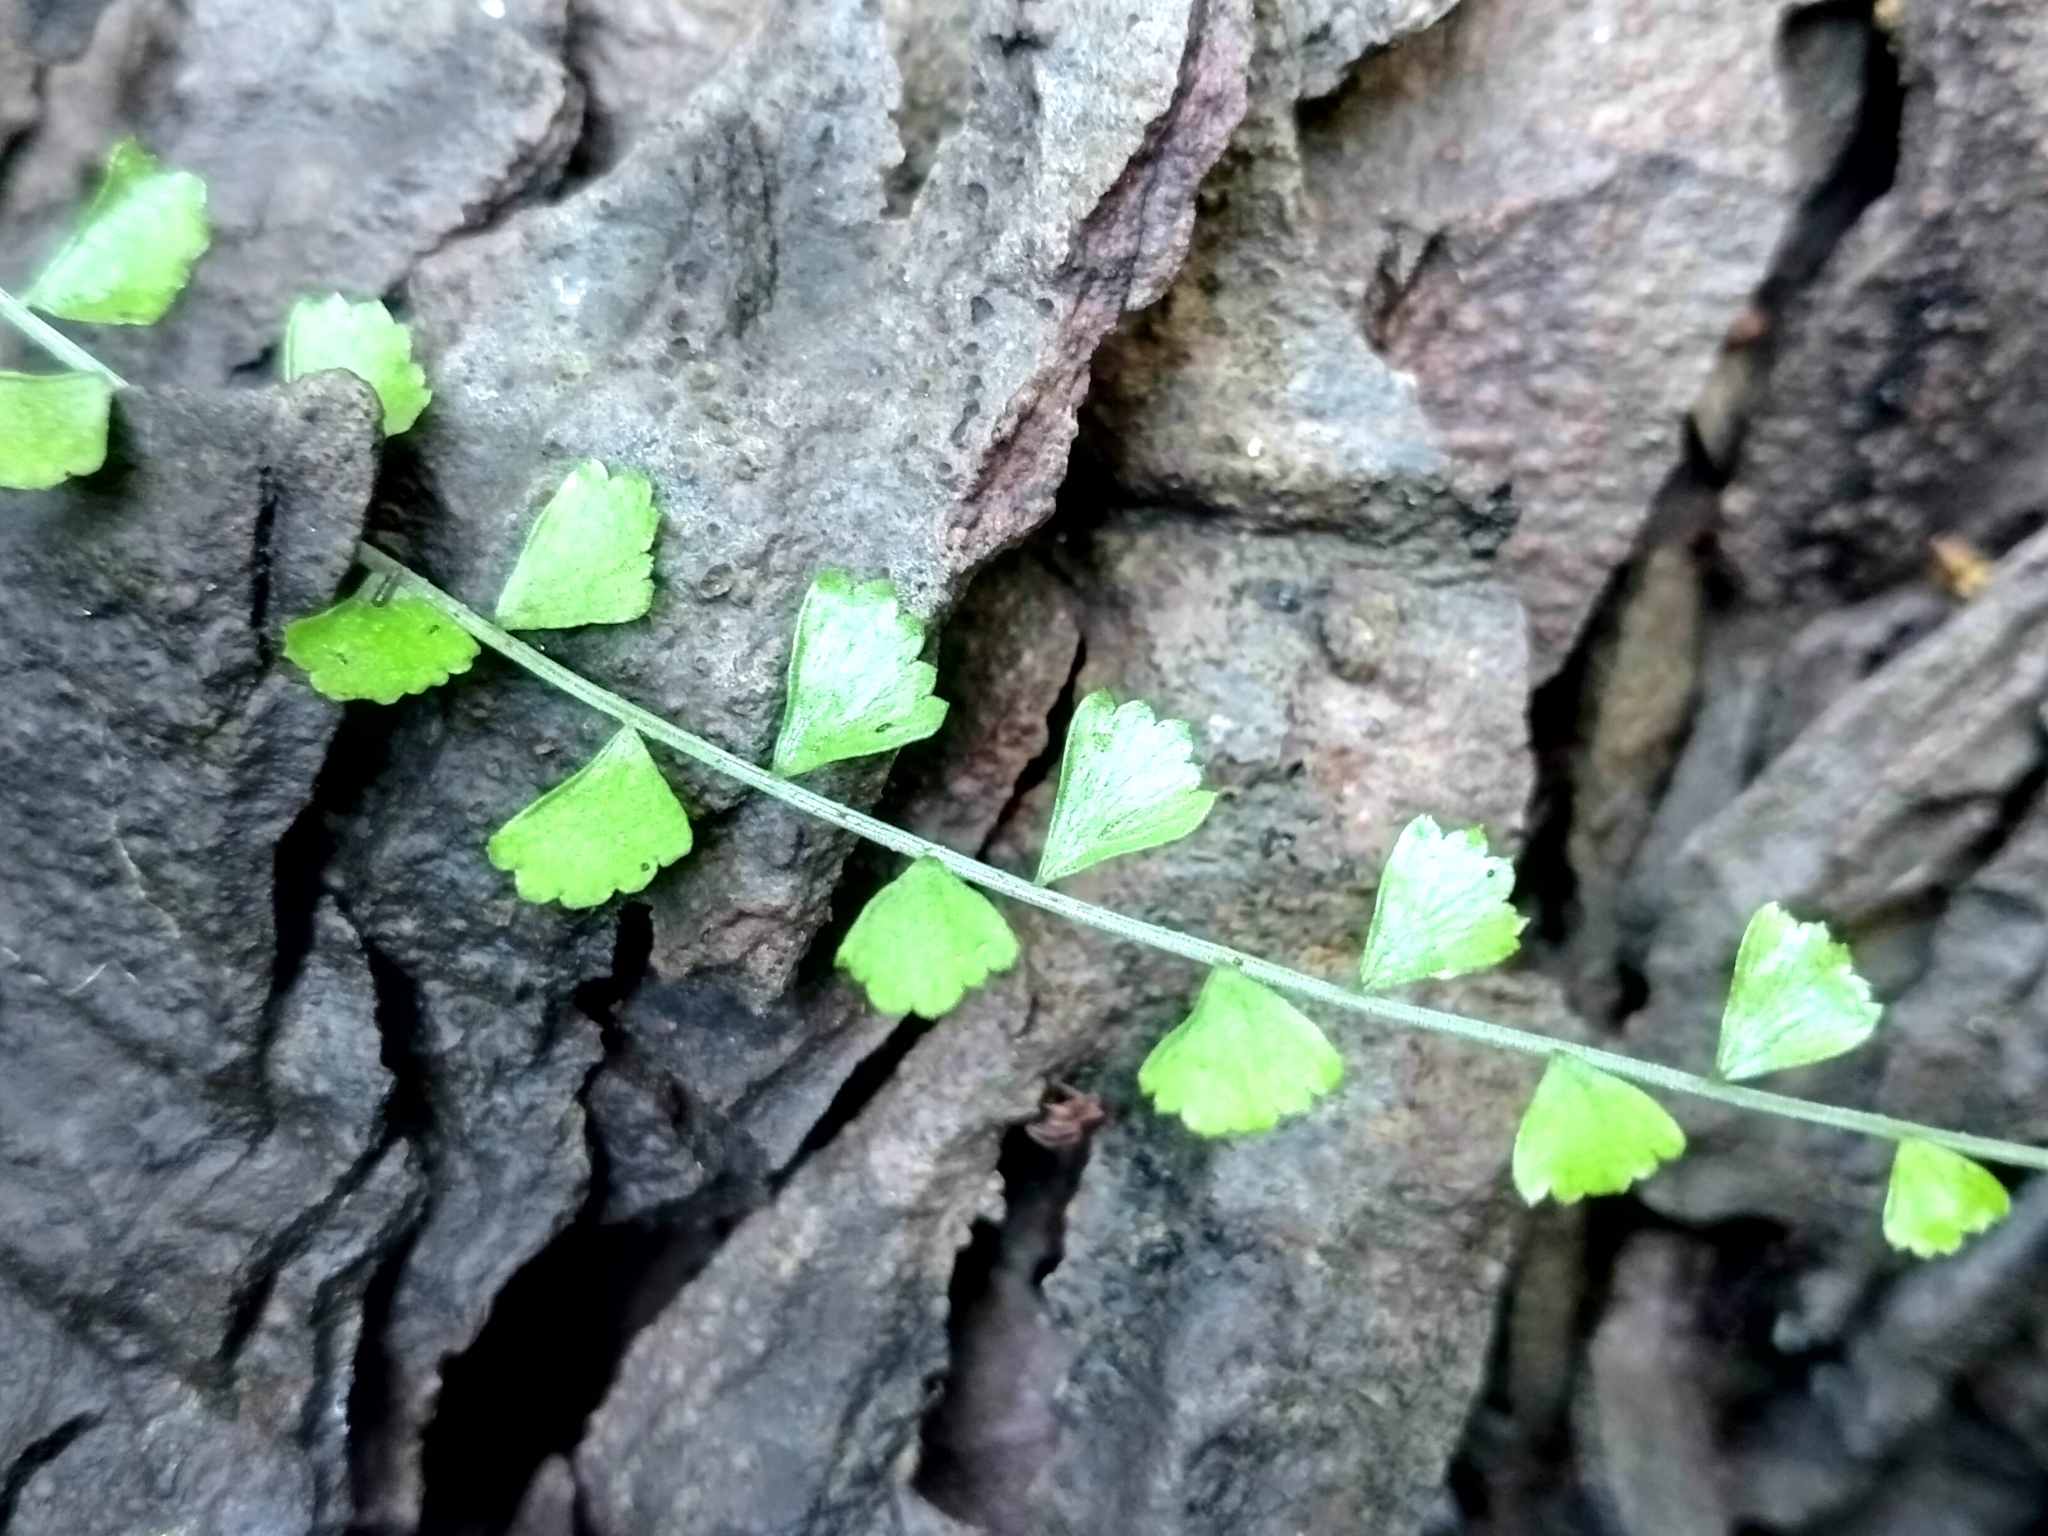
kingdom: Plantae
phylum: Tracheophyta
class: Polypodiopsida
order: Polypodiales
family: Aspleniaceae
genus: Asplenium
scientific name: Asplenium flabellifolium
